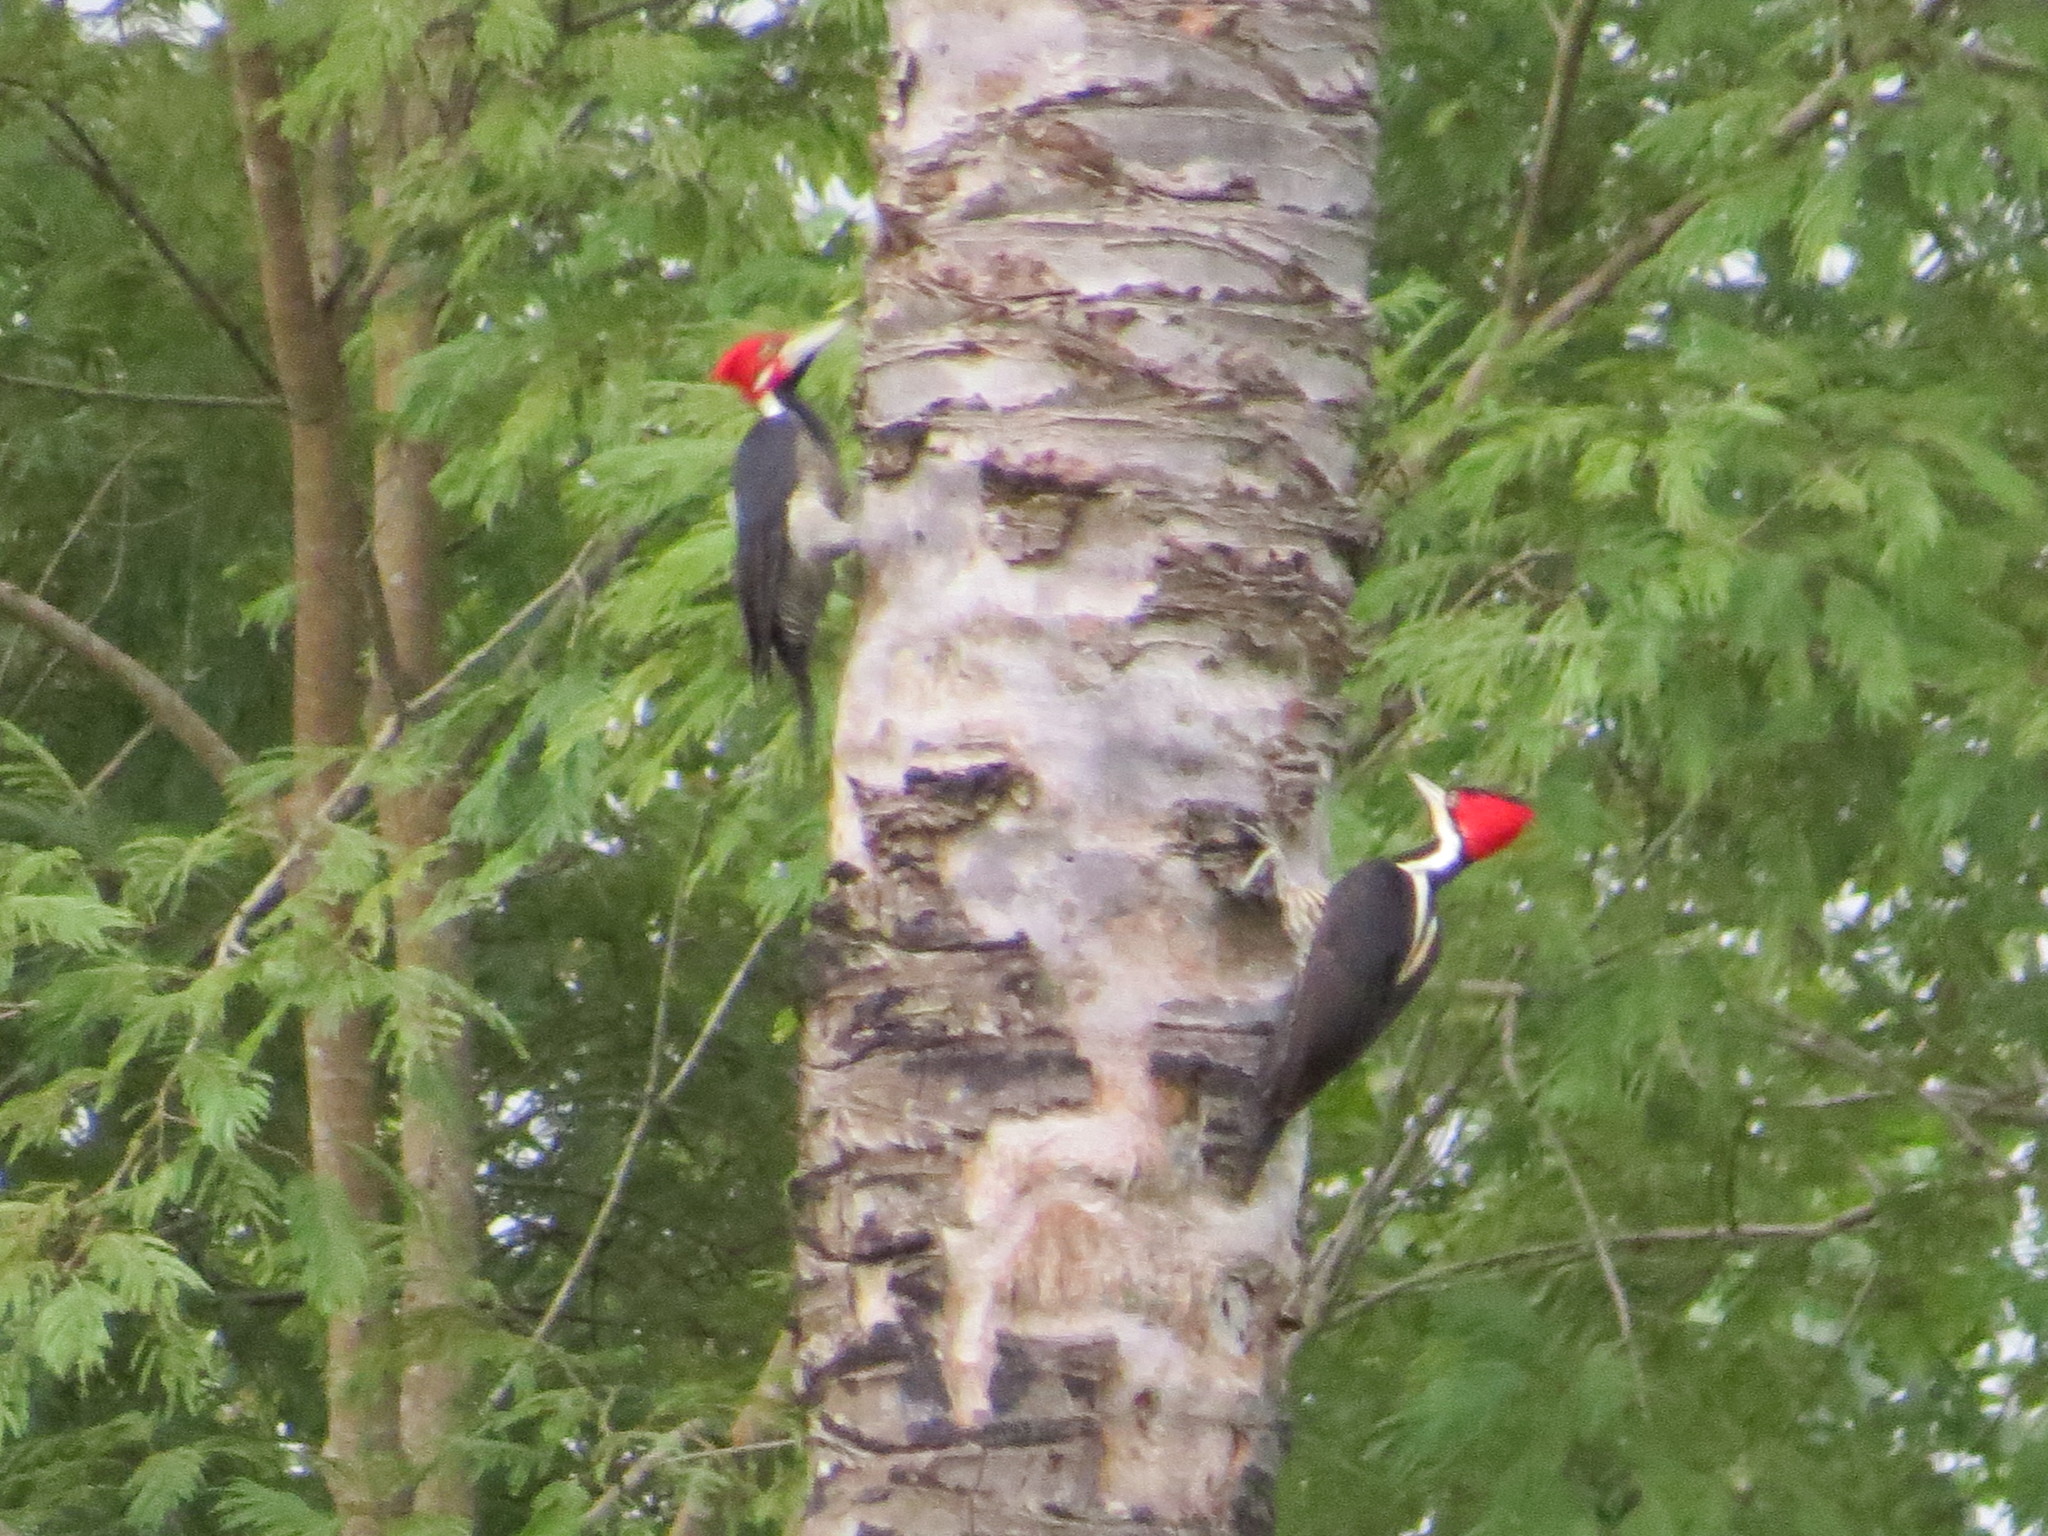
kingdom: Animalia
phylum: Chordata
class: Aves
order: Piciformes
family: Picidae
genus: Campephilus
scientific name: Campephilus melanoleucos
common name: Crimson-crested woodpecker
